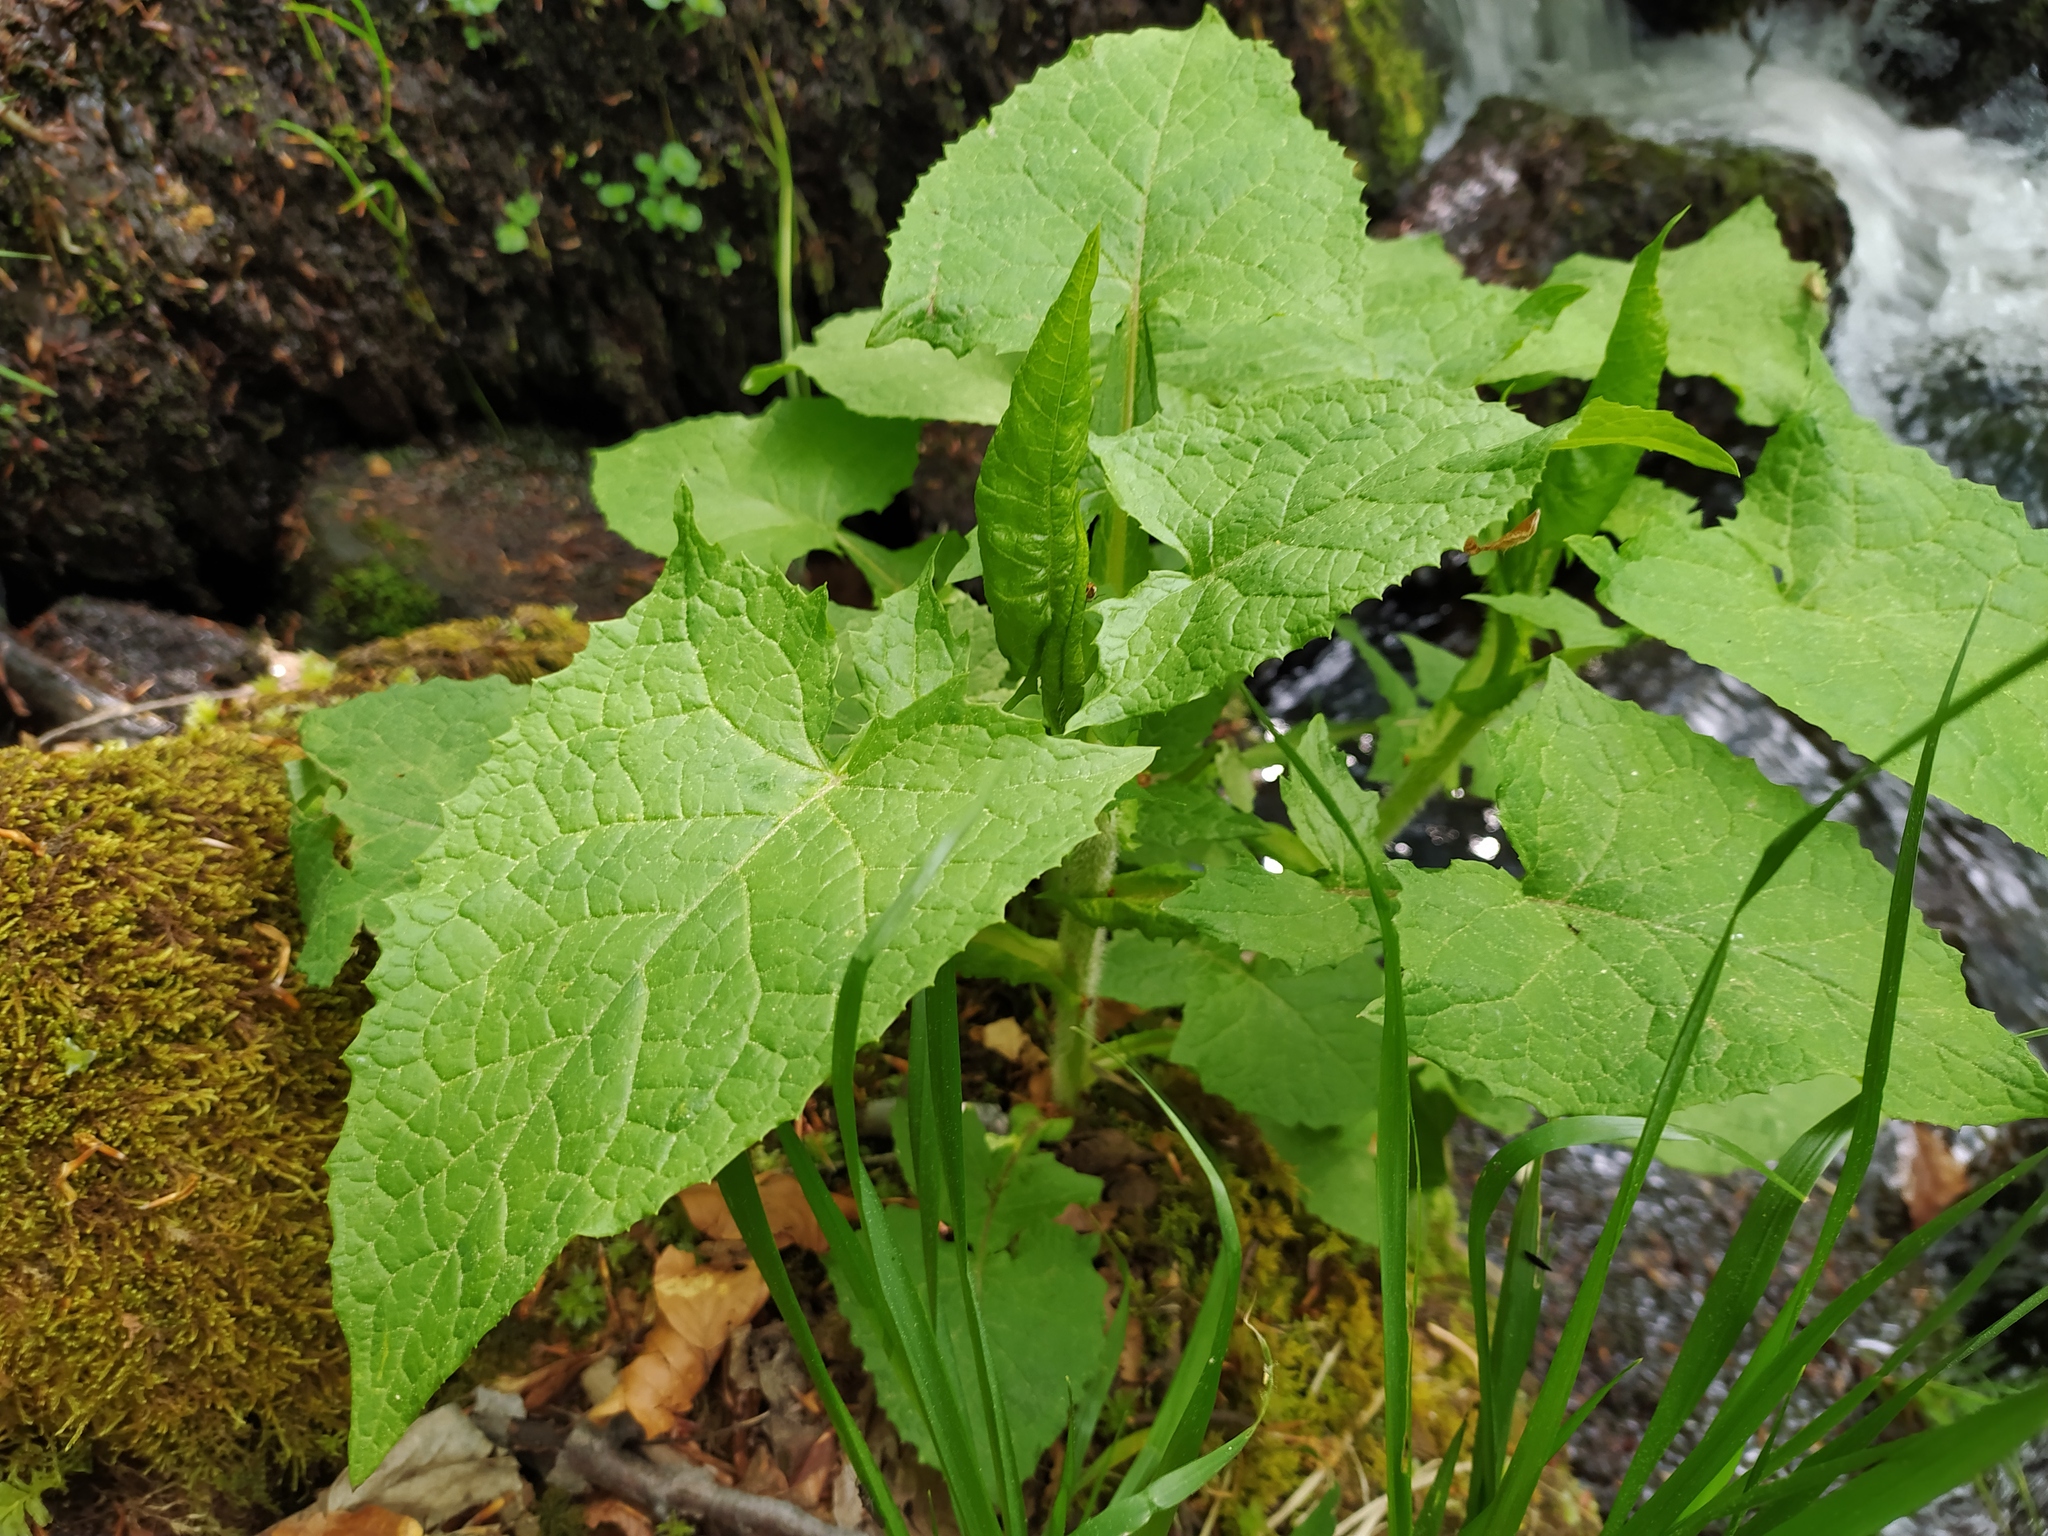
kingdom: Plantae
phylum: Tracheophyta
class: Magnoliopsida
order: Asterales
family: Asteraceae
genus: Cicerbita
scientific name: Cicerbita alpina
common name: Alpine blue-sow-thistle
